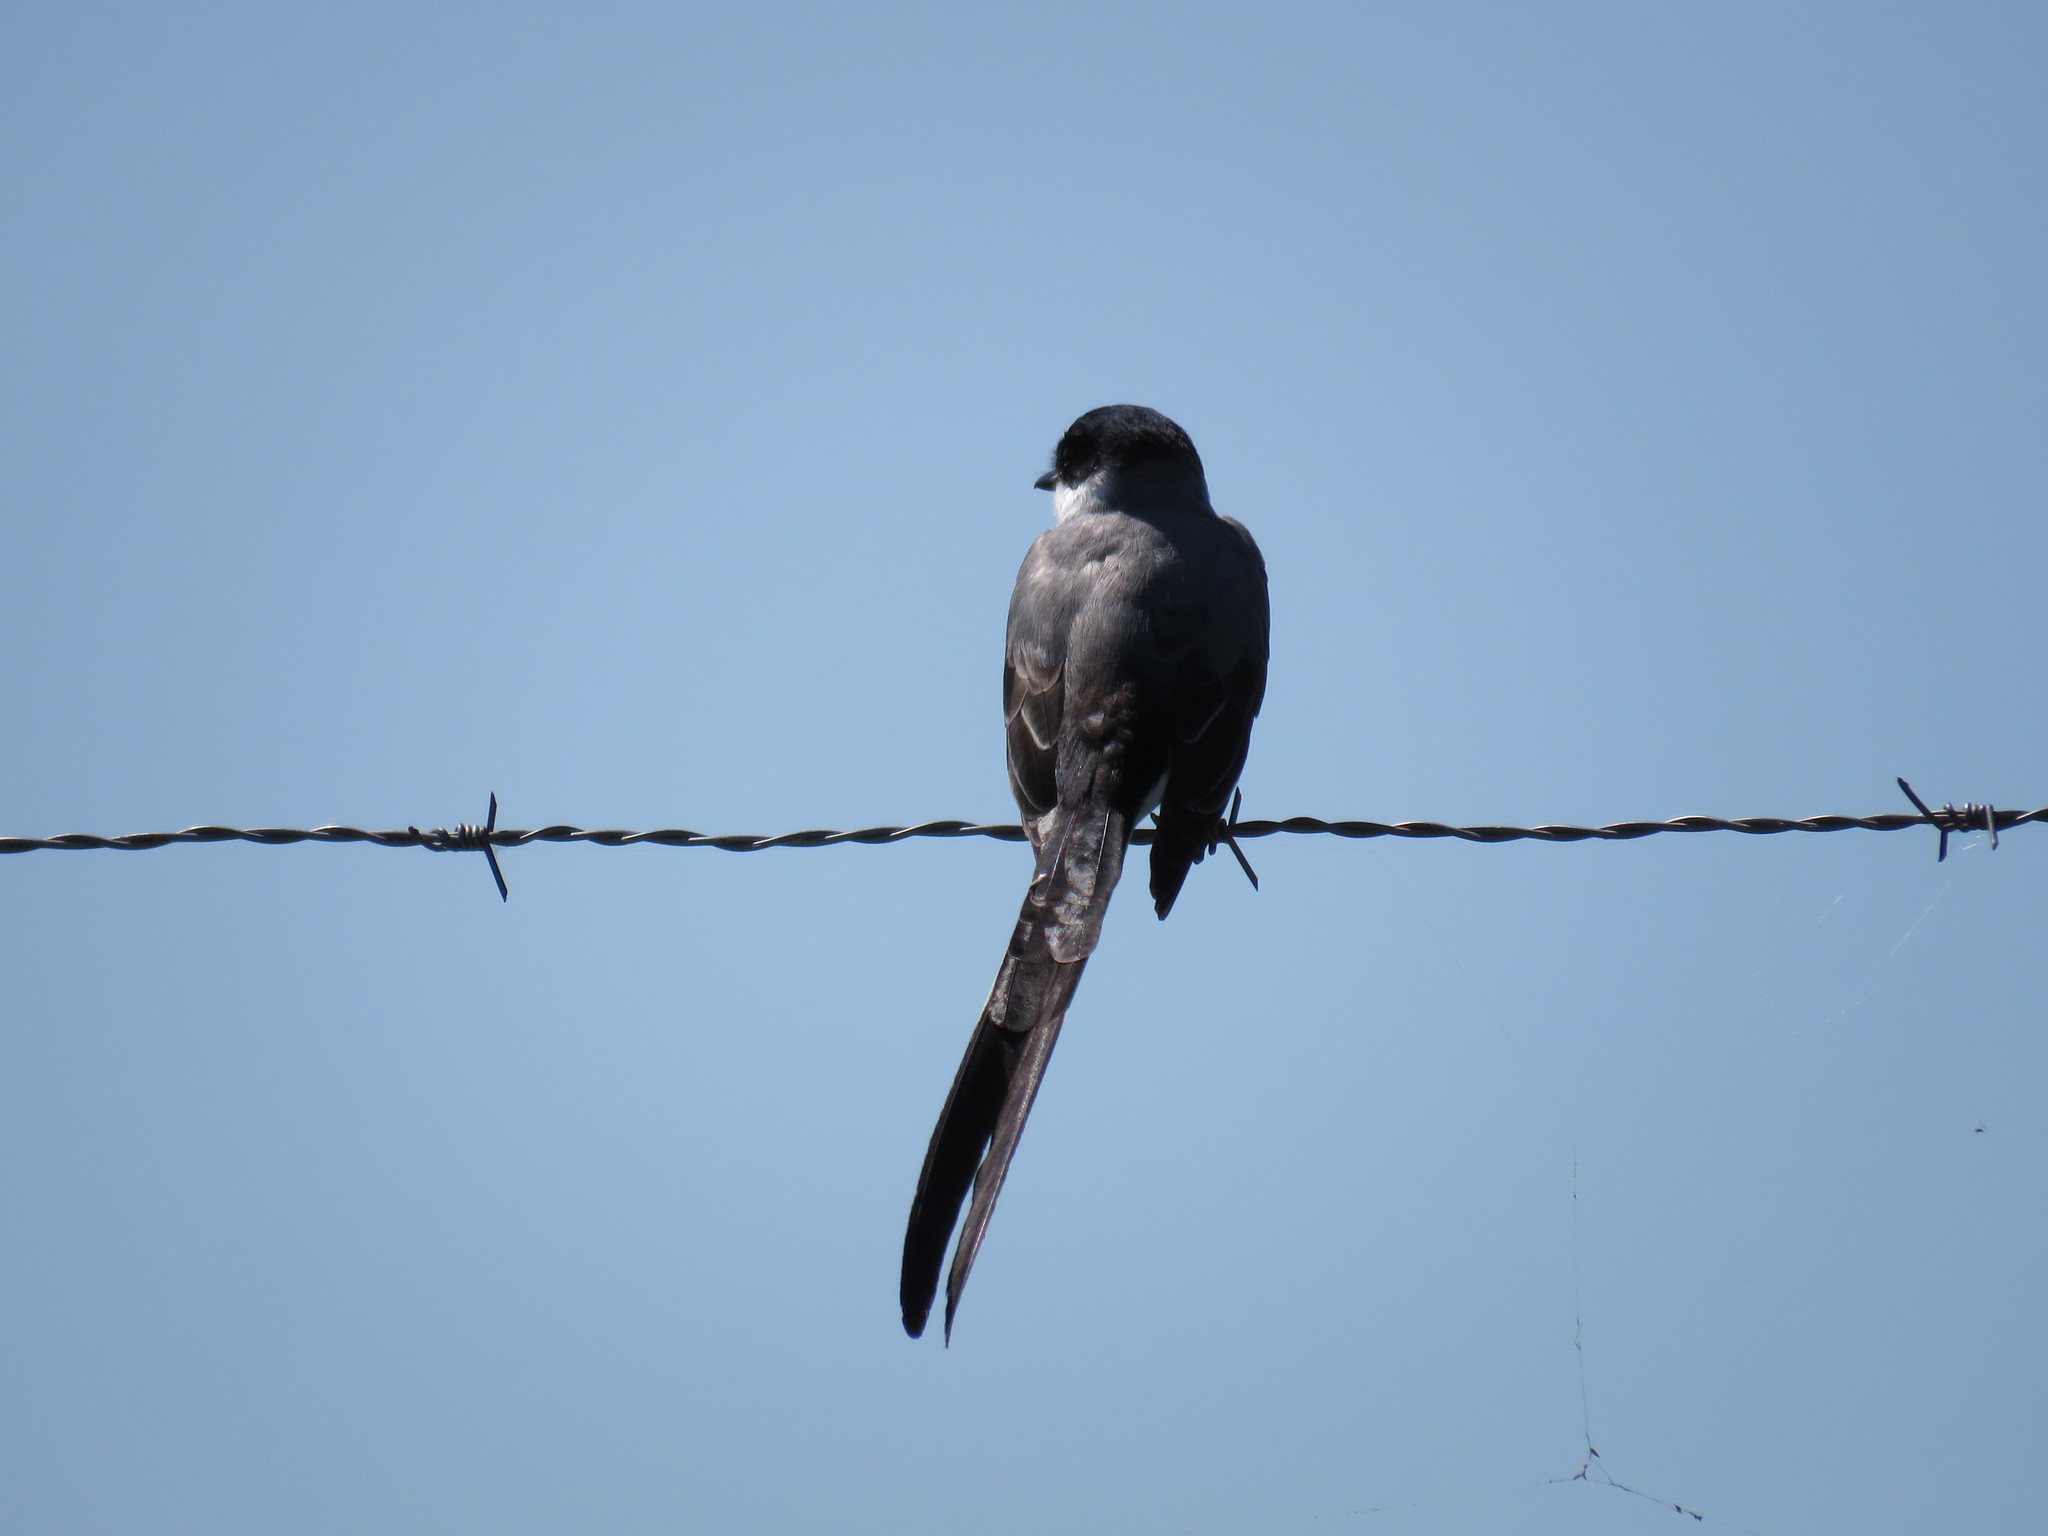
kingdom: Animalia
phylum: Chordata
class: Aves
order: Passeriformes
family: Tyrannidae
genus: Tyrannus
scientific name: Tyrannus savana
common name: Fork-tailed flycatcher
